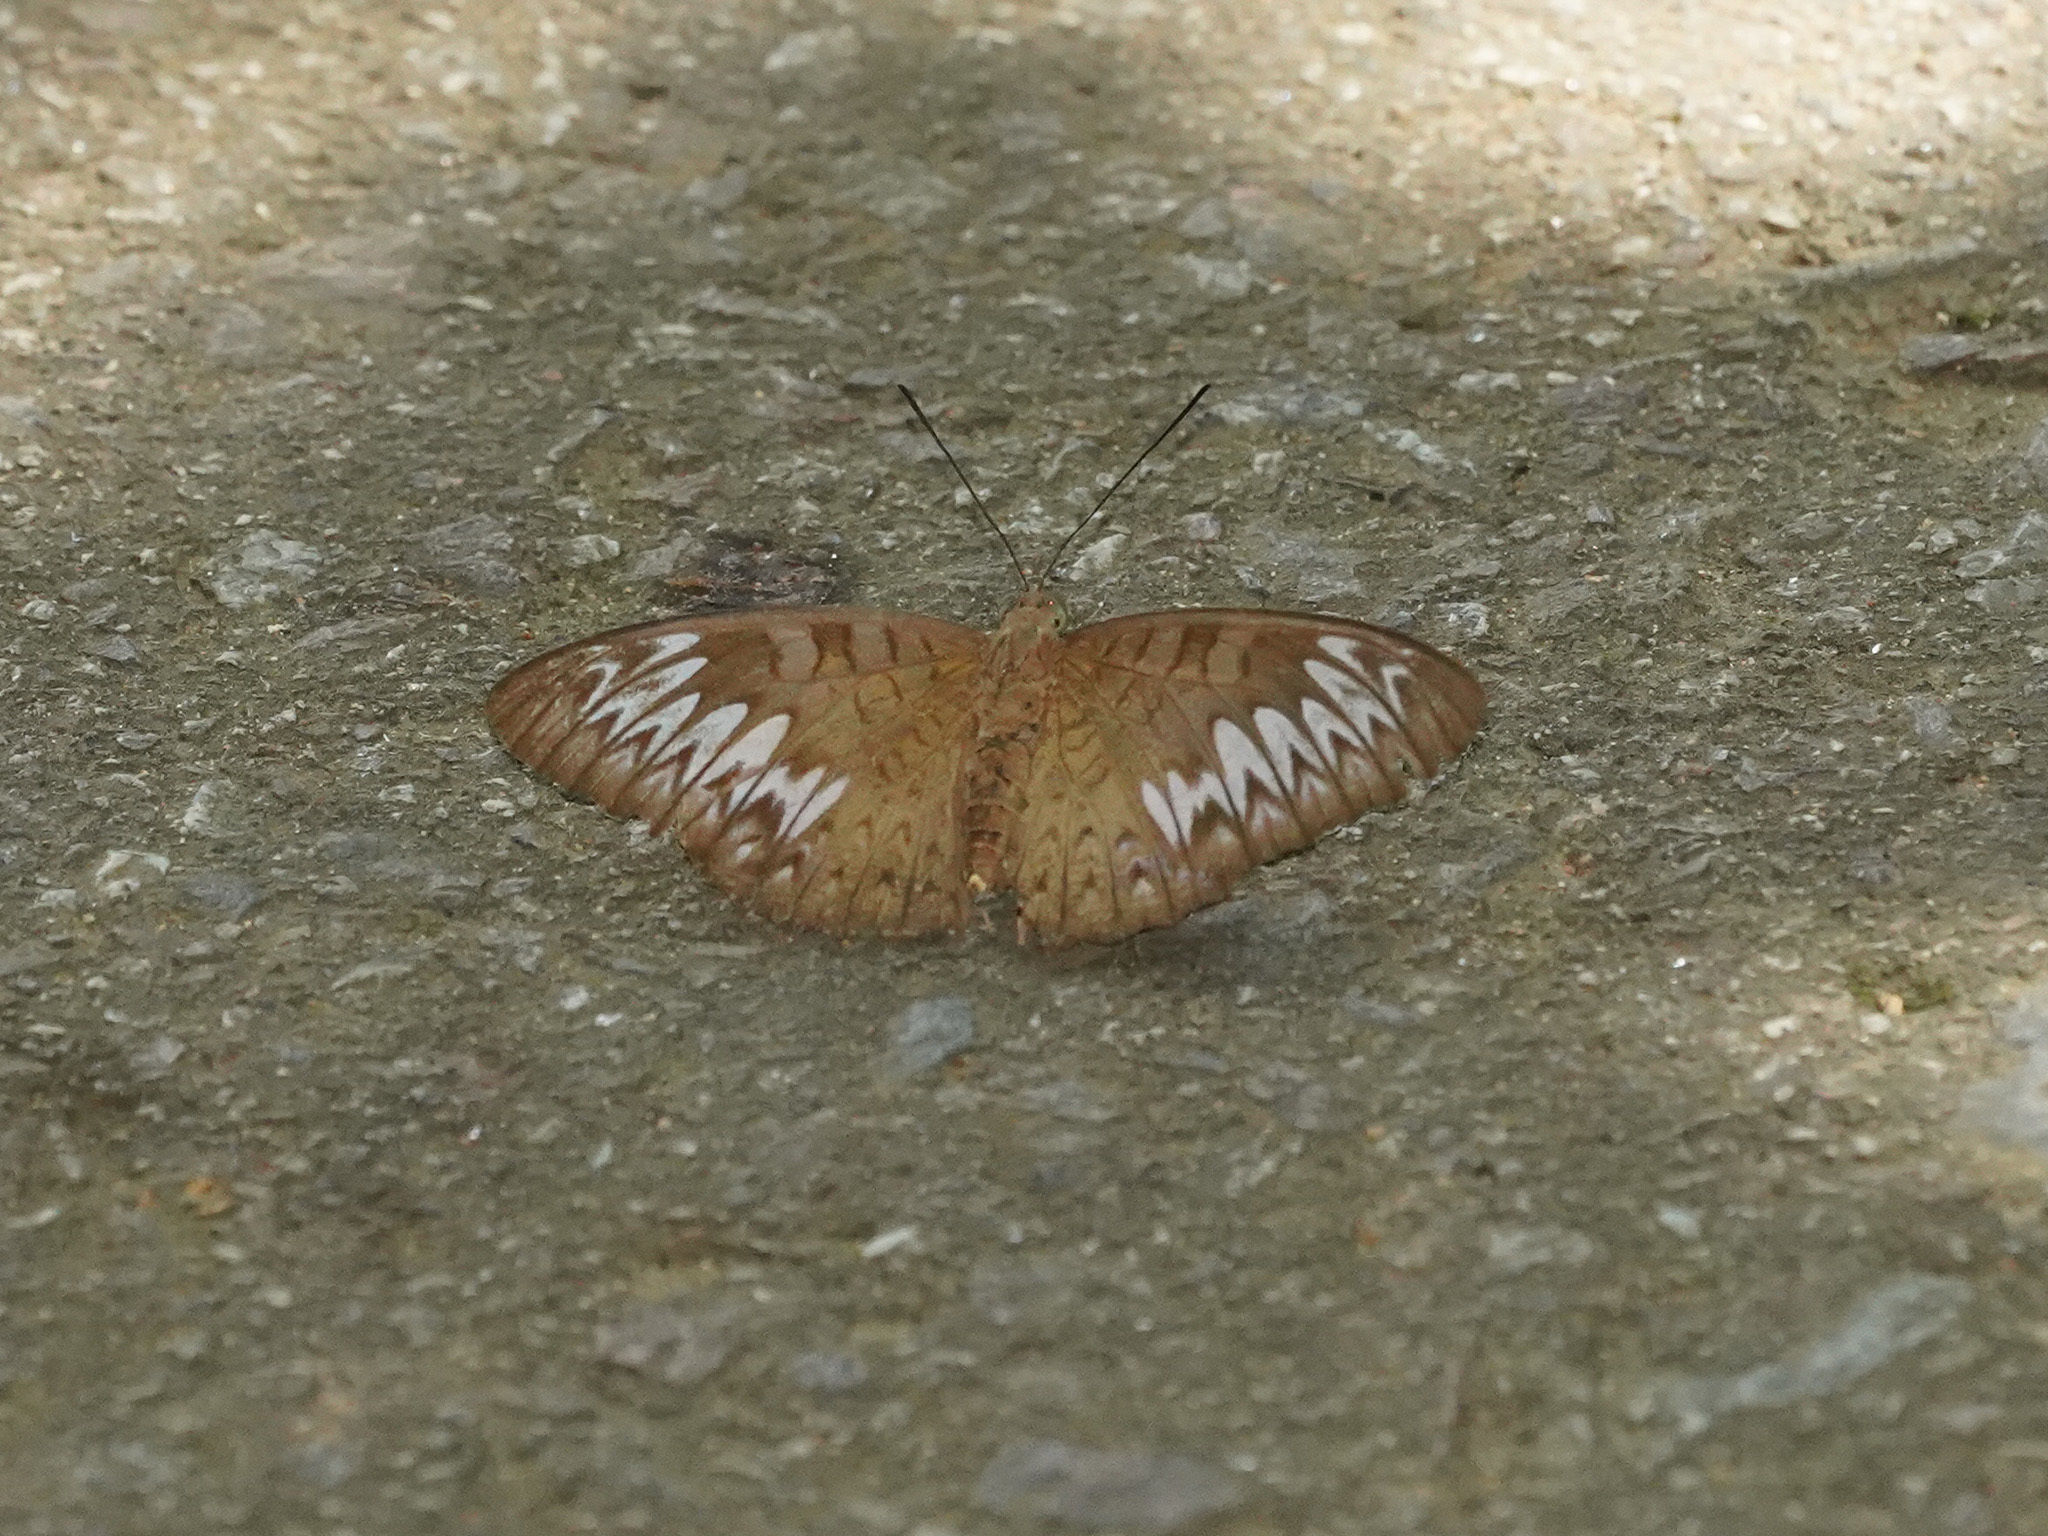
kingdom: Animalia
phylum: Arthropoda
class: Insecta
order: Lepidoptera
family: Nymphalidae
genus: Tanaecia
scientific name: Tanaecia pelea
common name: Malay viscount
